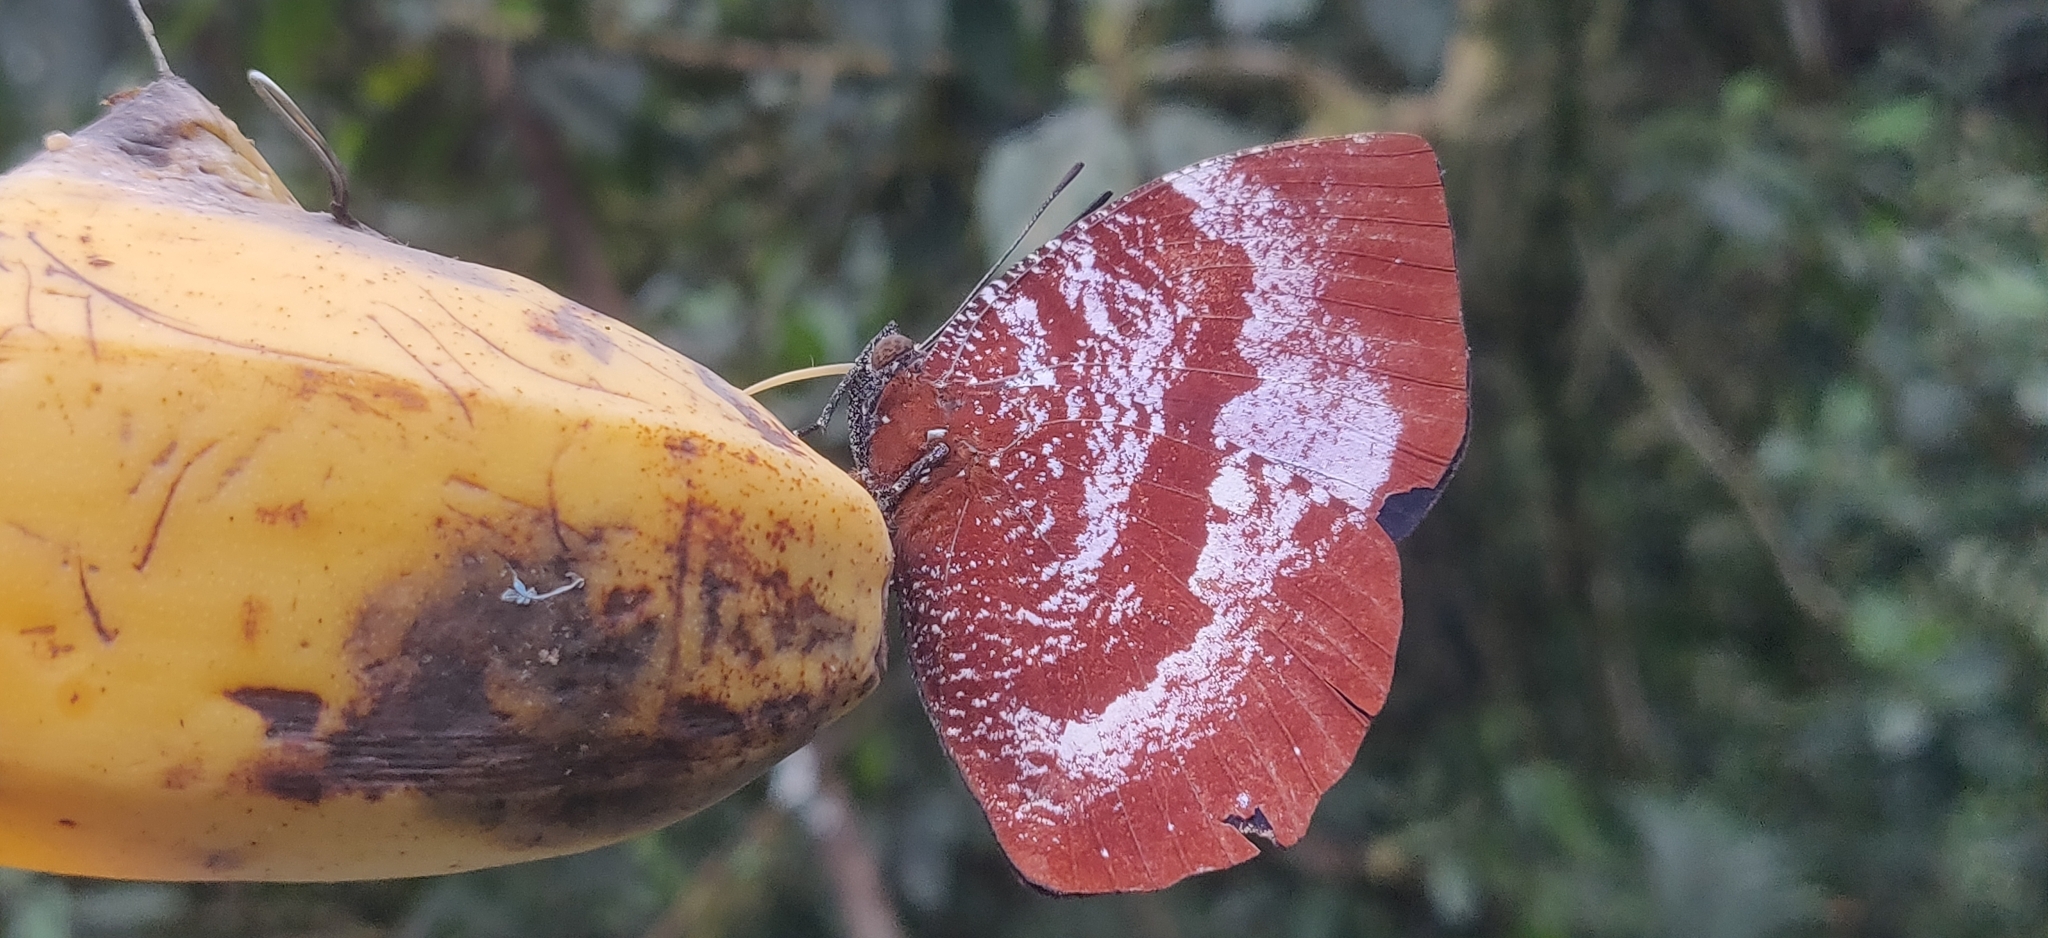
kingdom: Animalia
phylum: Arthropoda
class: Insecta
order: Lepidoptera
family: Nymphalidae
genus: Memphis
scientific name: Memphis
